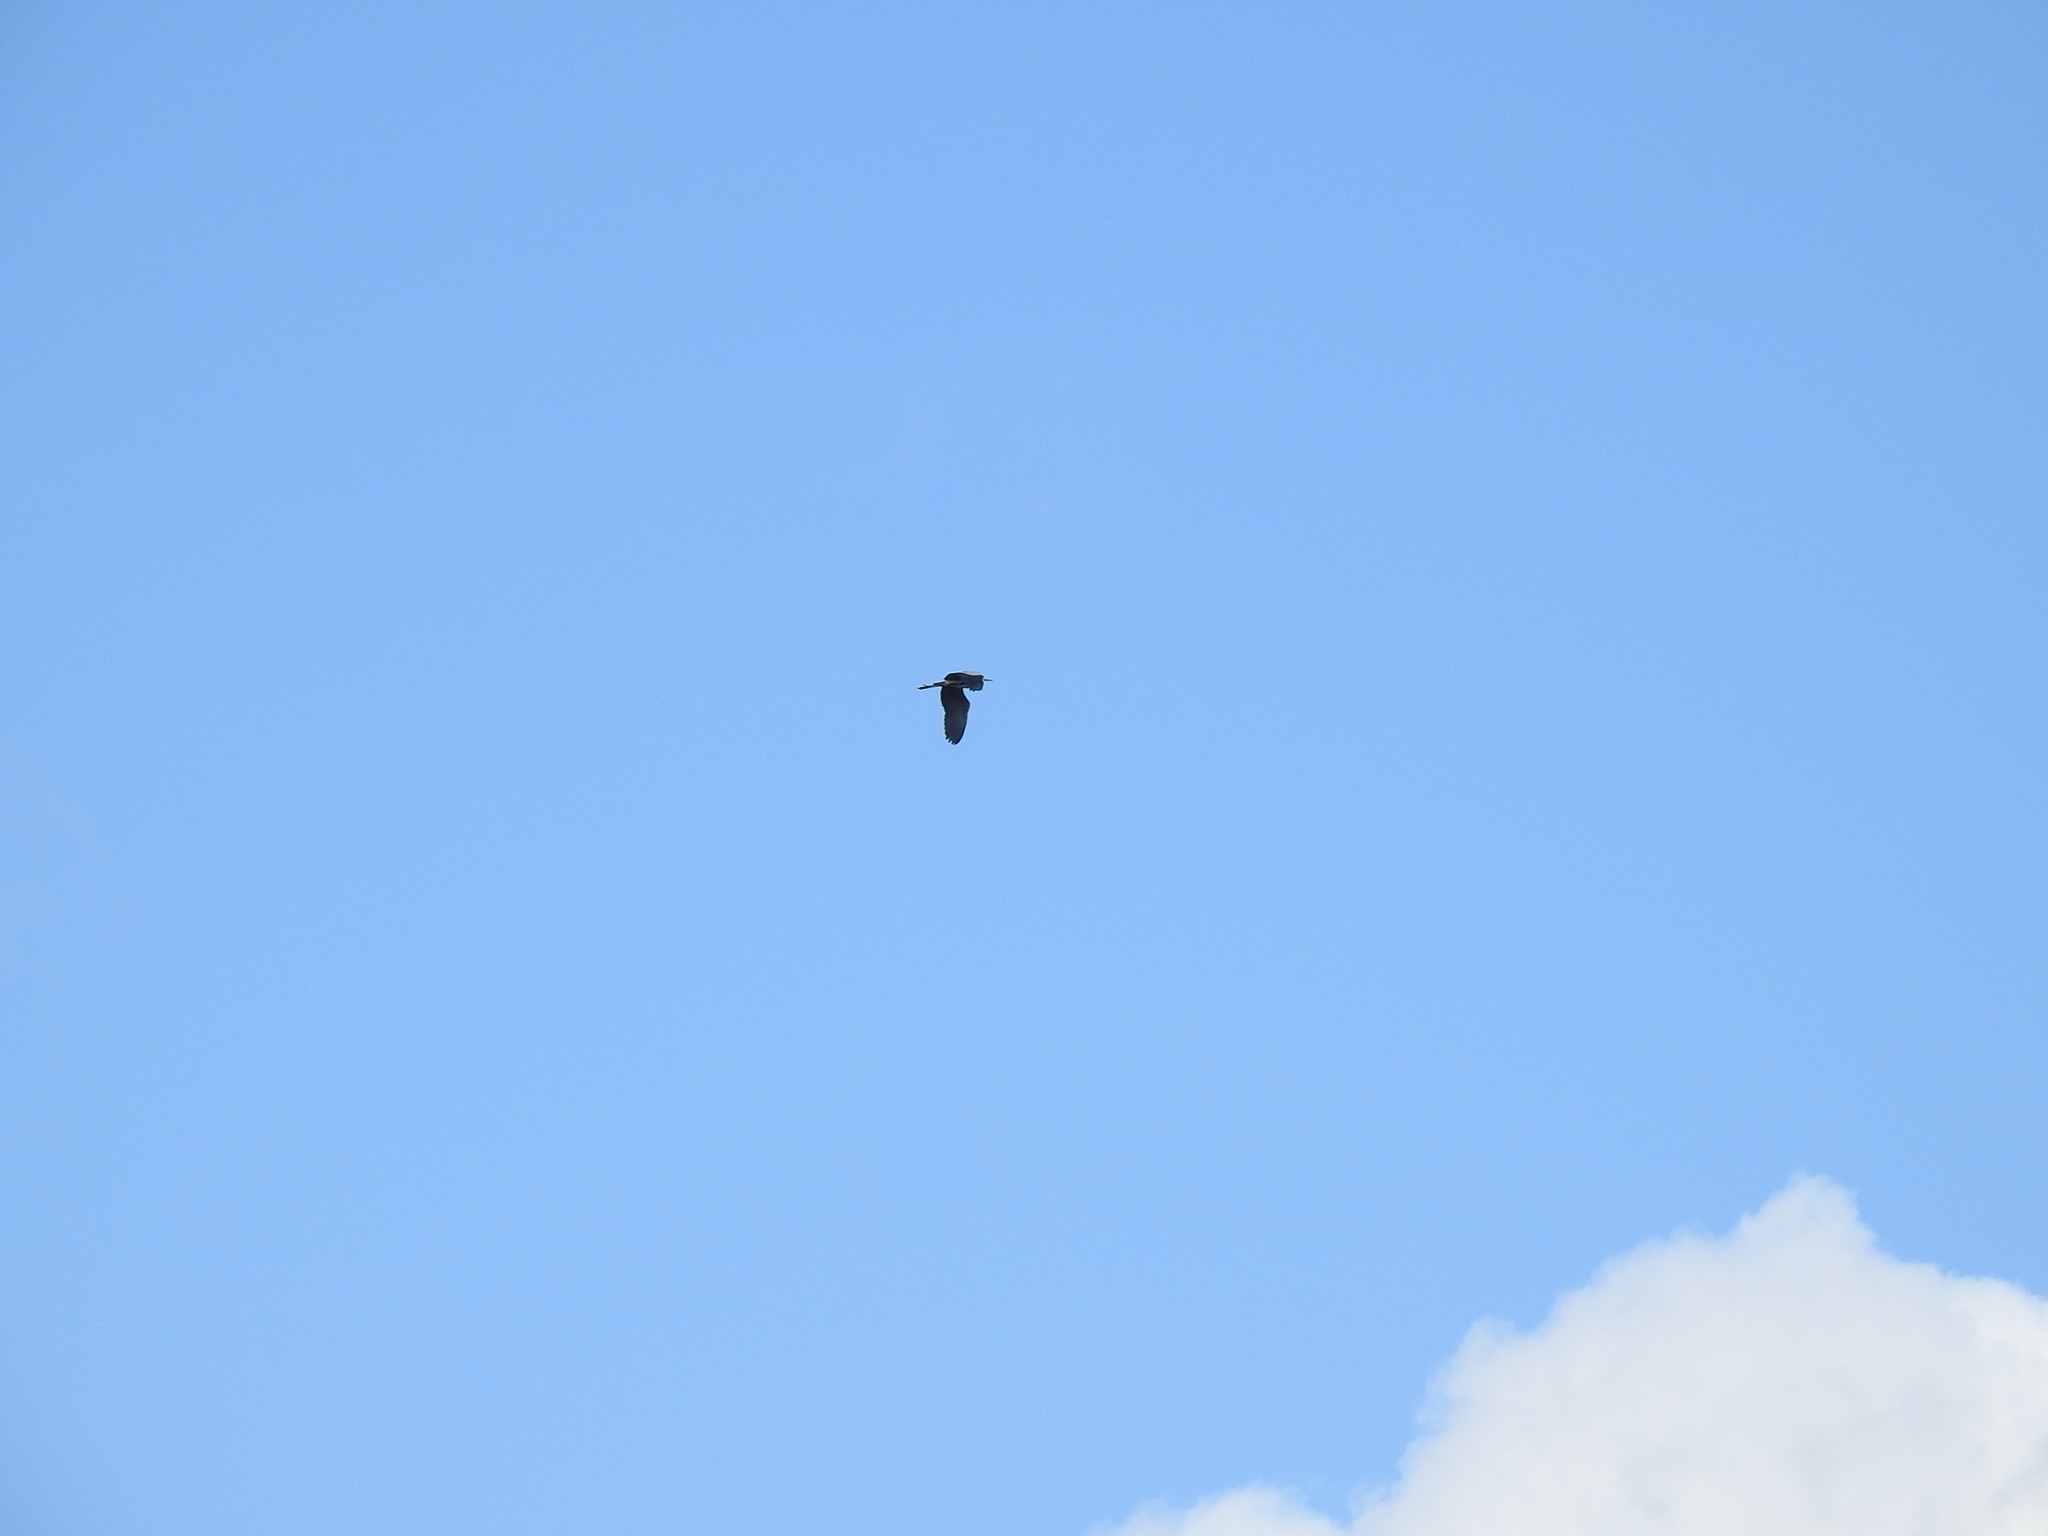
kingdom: Animalia
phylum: Chordata
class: Aves
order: Pelecaniformes
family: Ardeidae
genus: Ardea
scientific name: Ardea cinerea
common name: Grey heron
